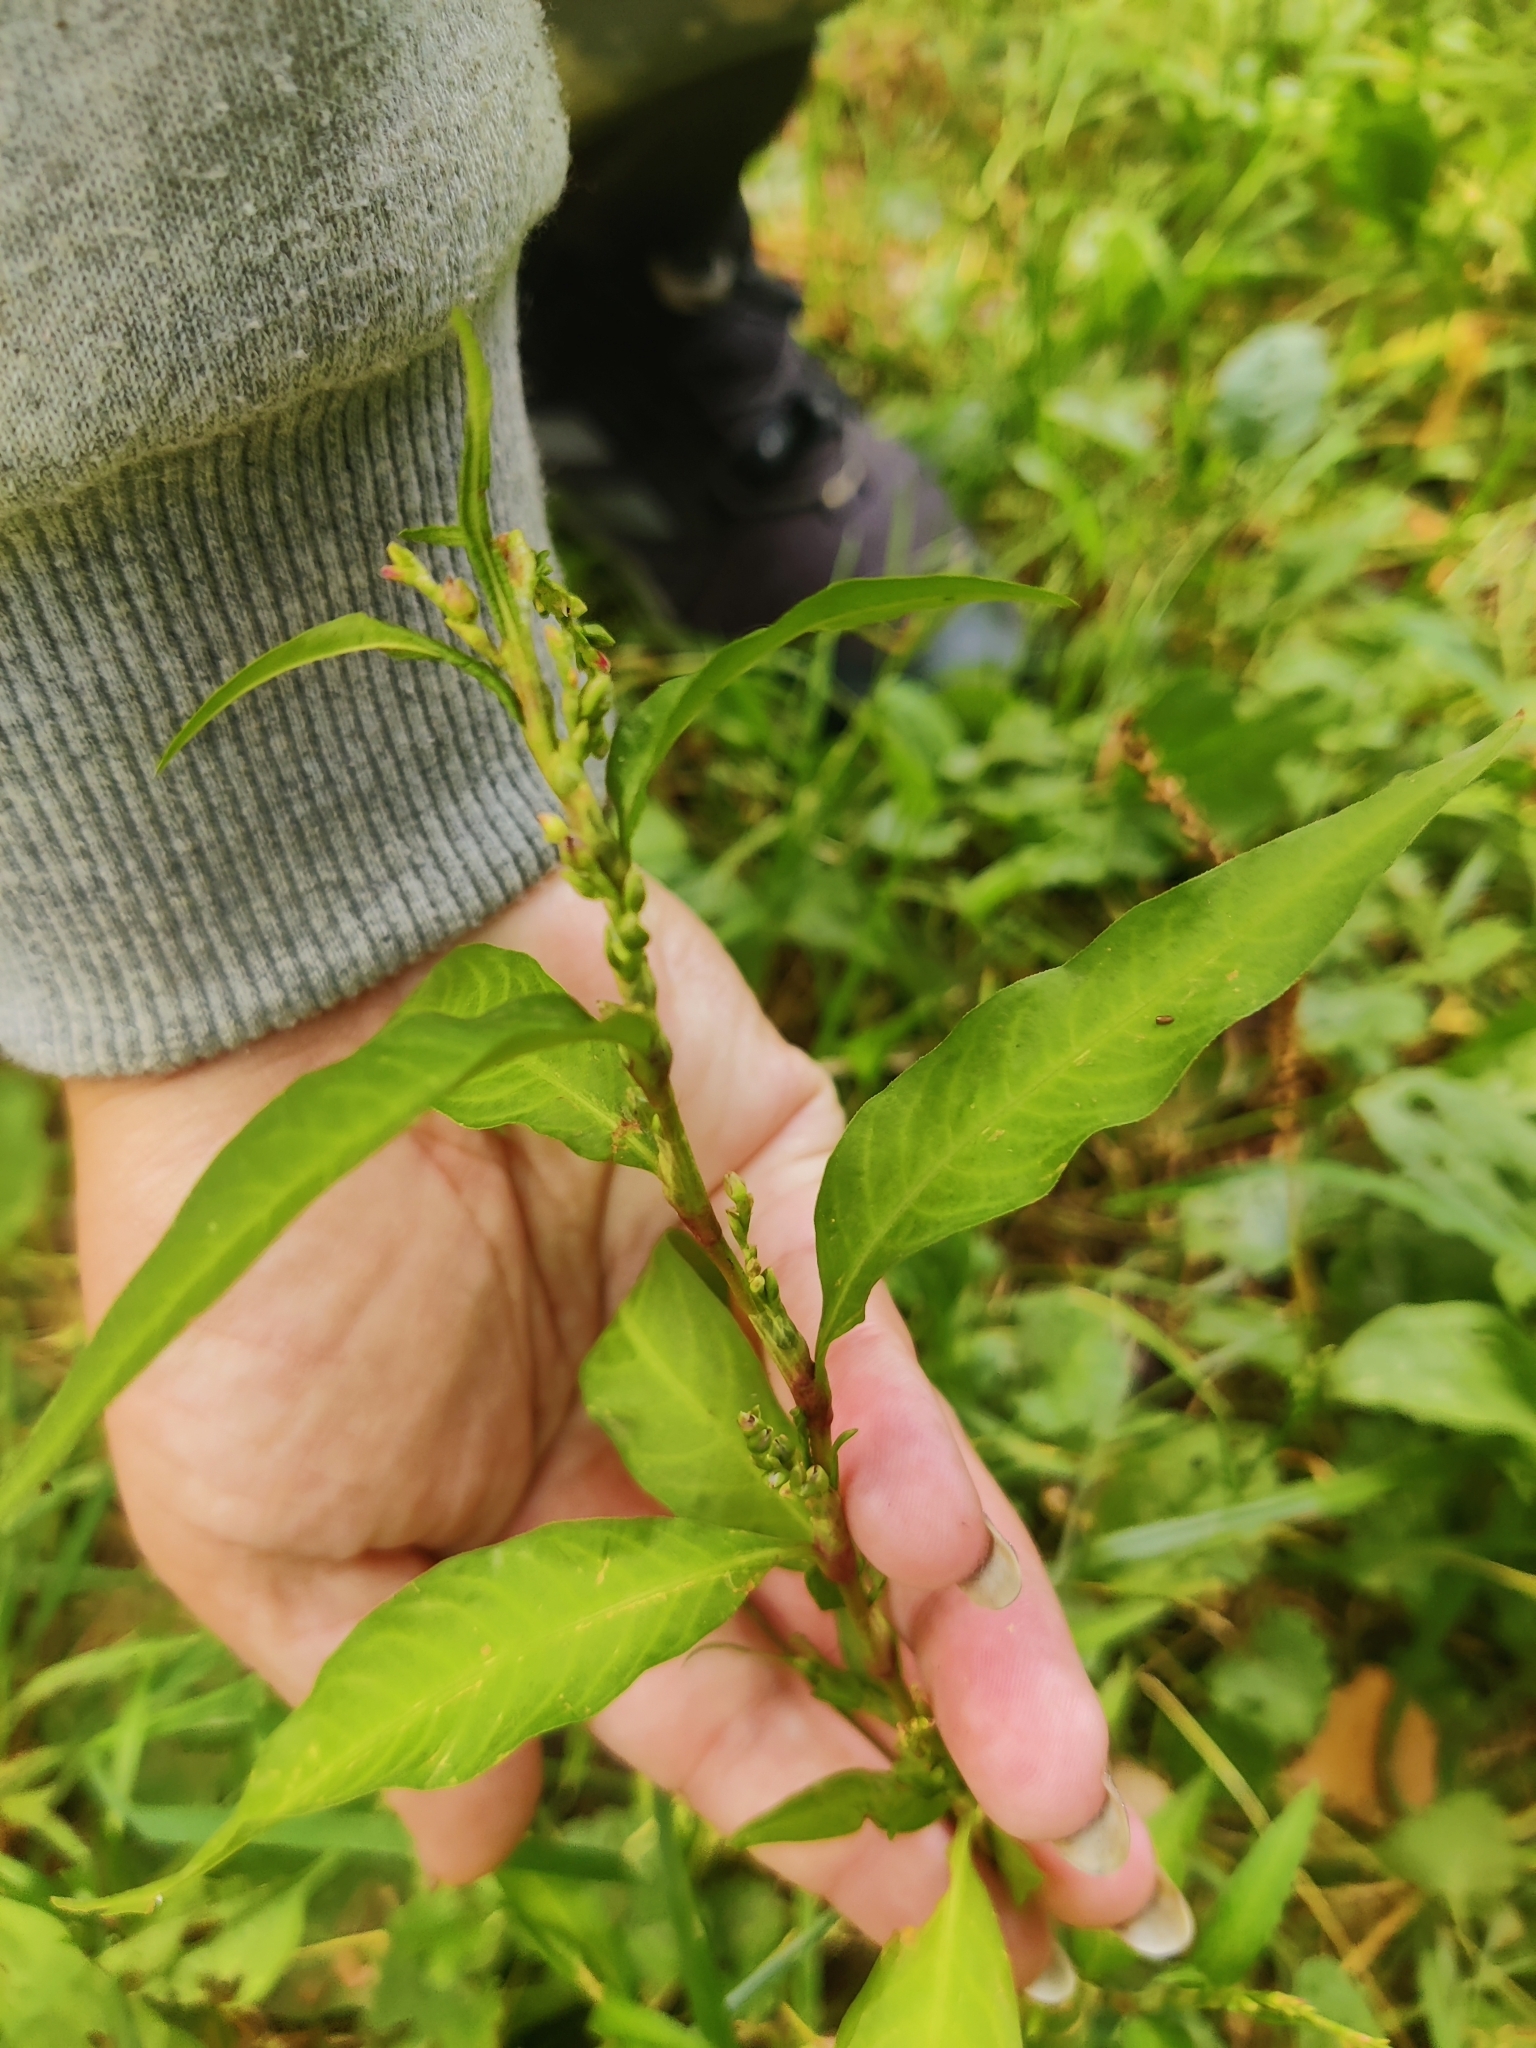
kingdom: Plantae
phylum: Tracheophyta
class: Magnoliopsida
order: Caryophyllales
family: Polygonaceae
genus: Persicaria
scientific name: Persicaria hydropiper
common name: Water-pepper
